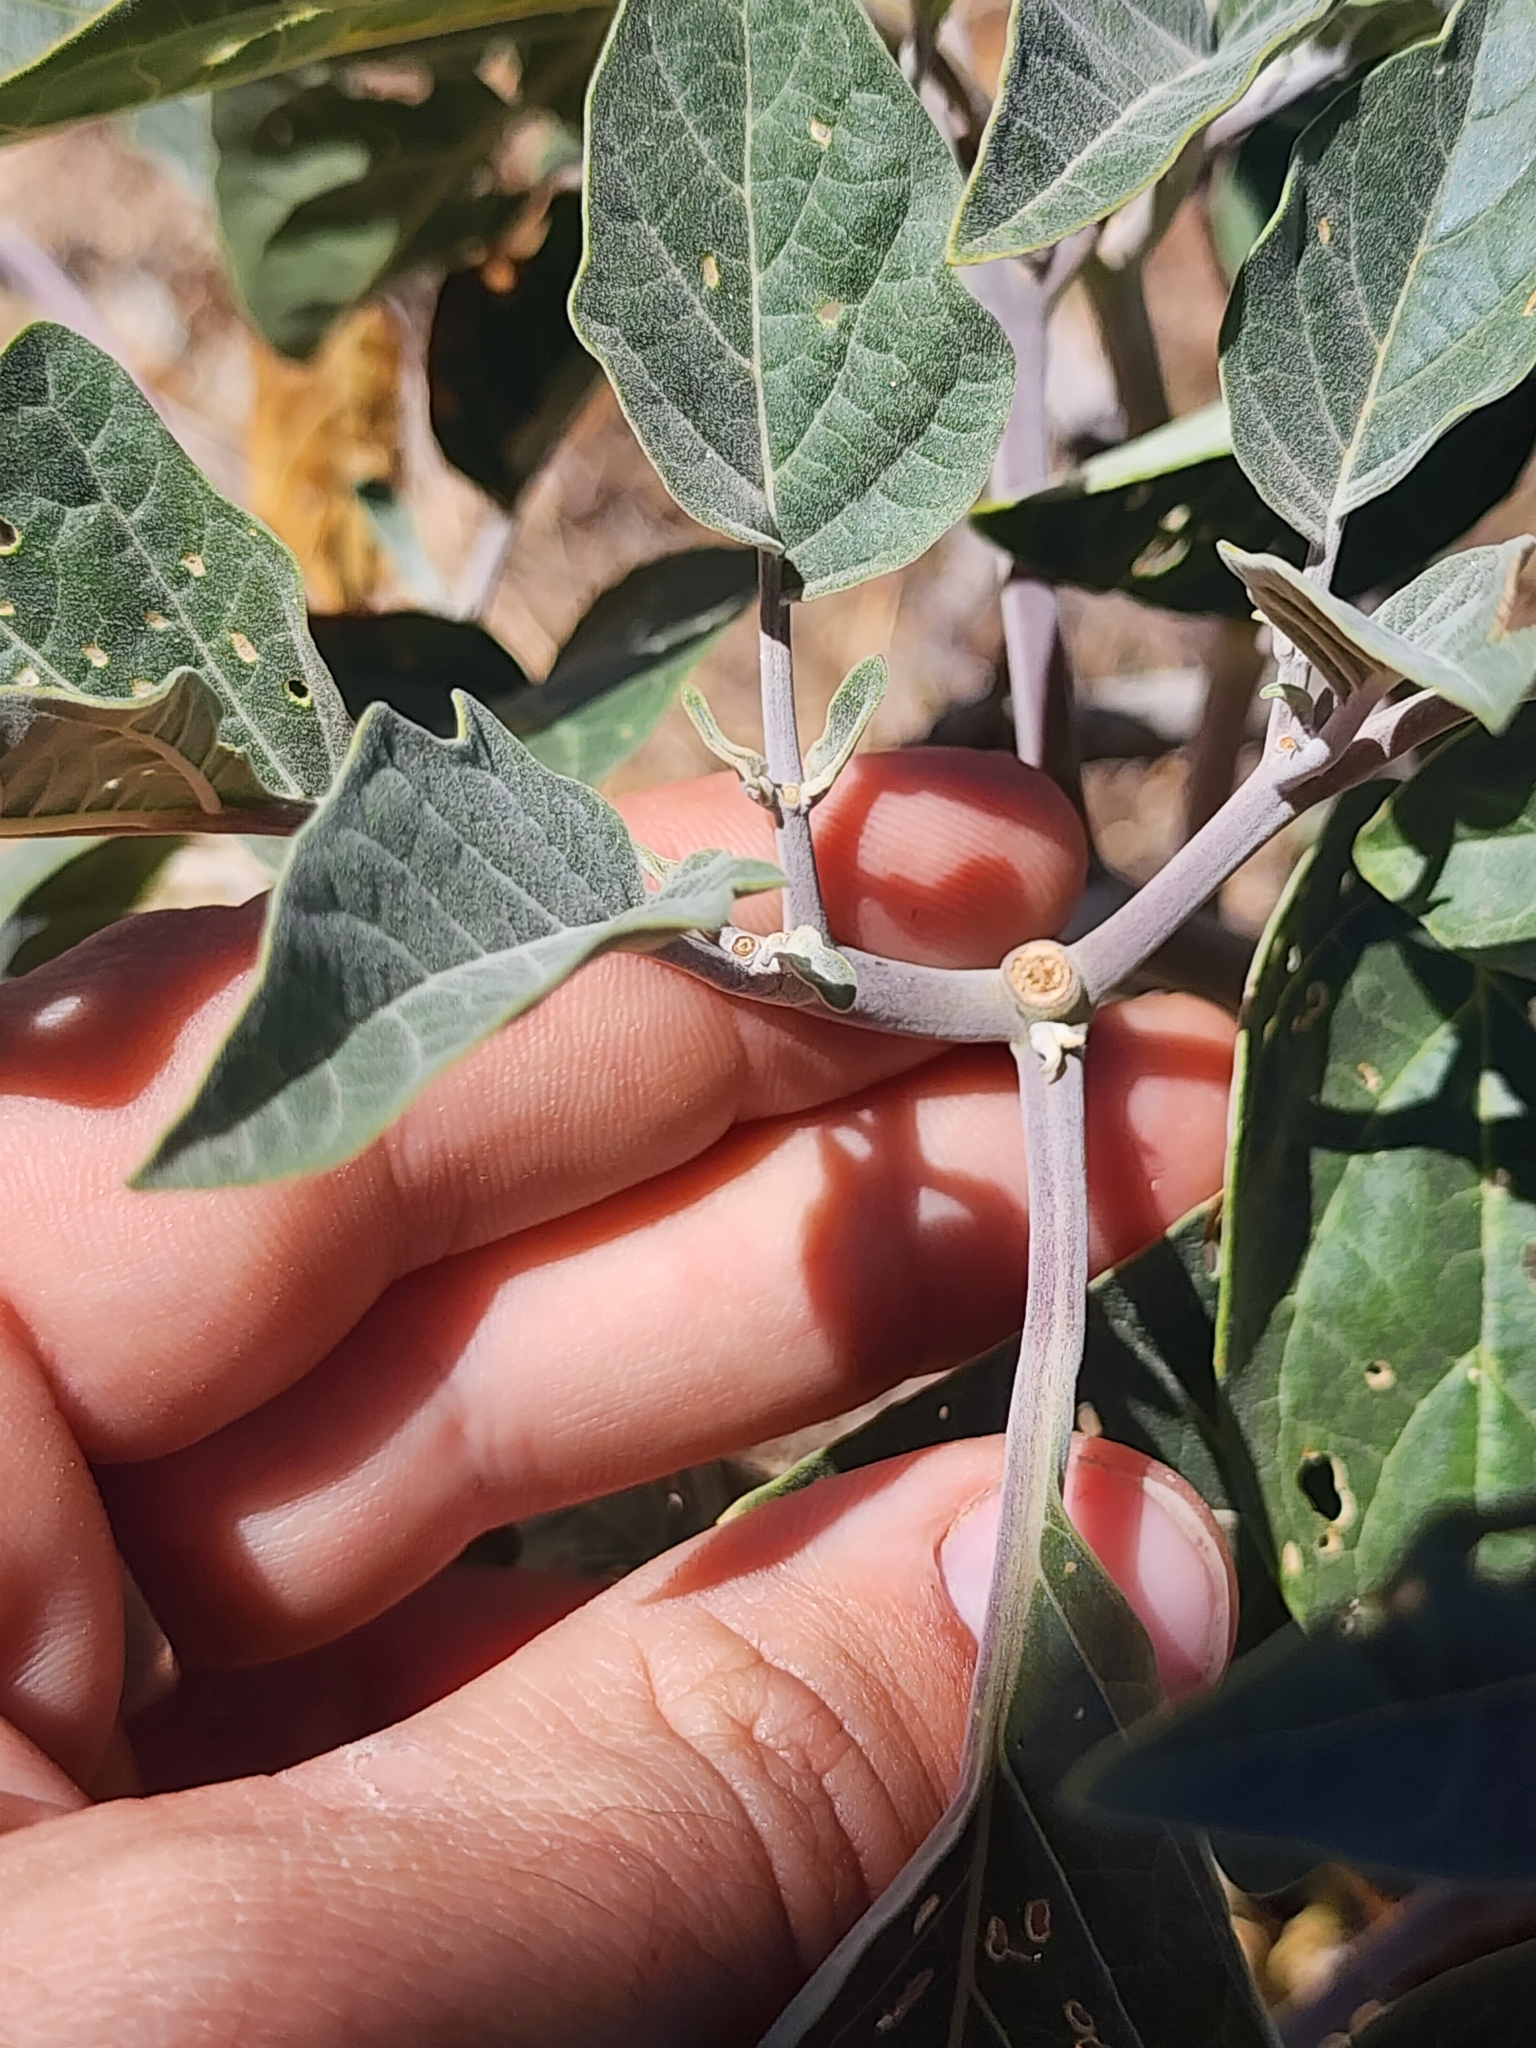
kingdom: Plantae
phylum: Tracheophyta
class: Magnoliopsida
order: Solanales
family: Solanaceae
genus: Datura
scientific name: Datura wrightii
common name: Sacred thorn-apple
